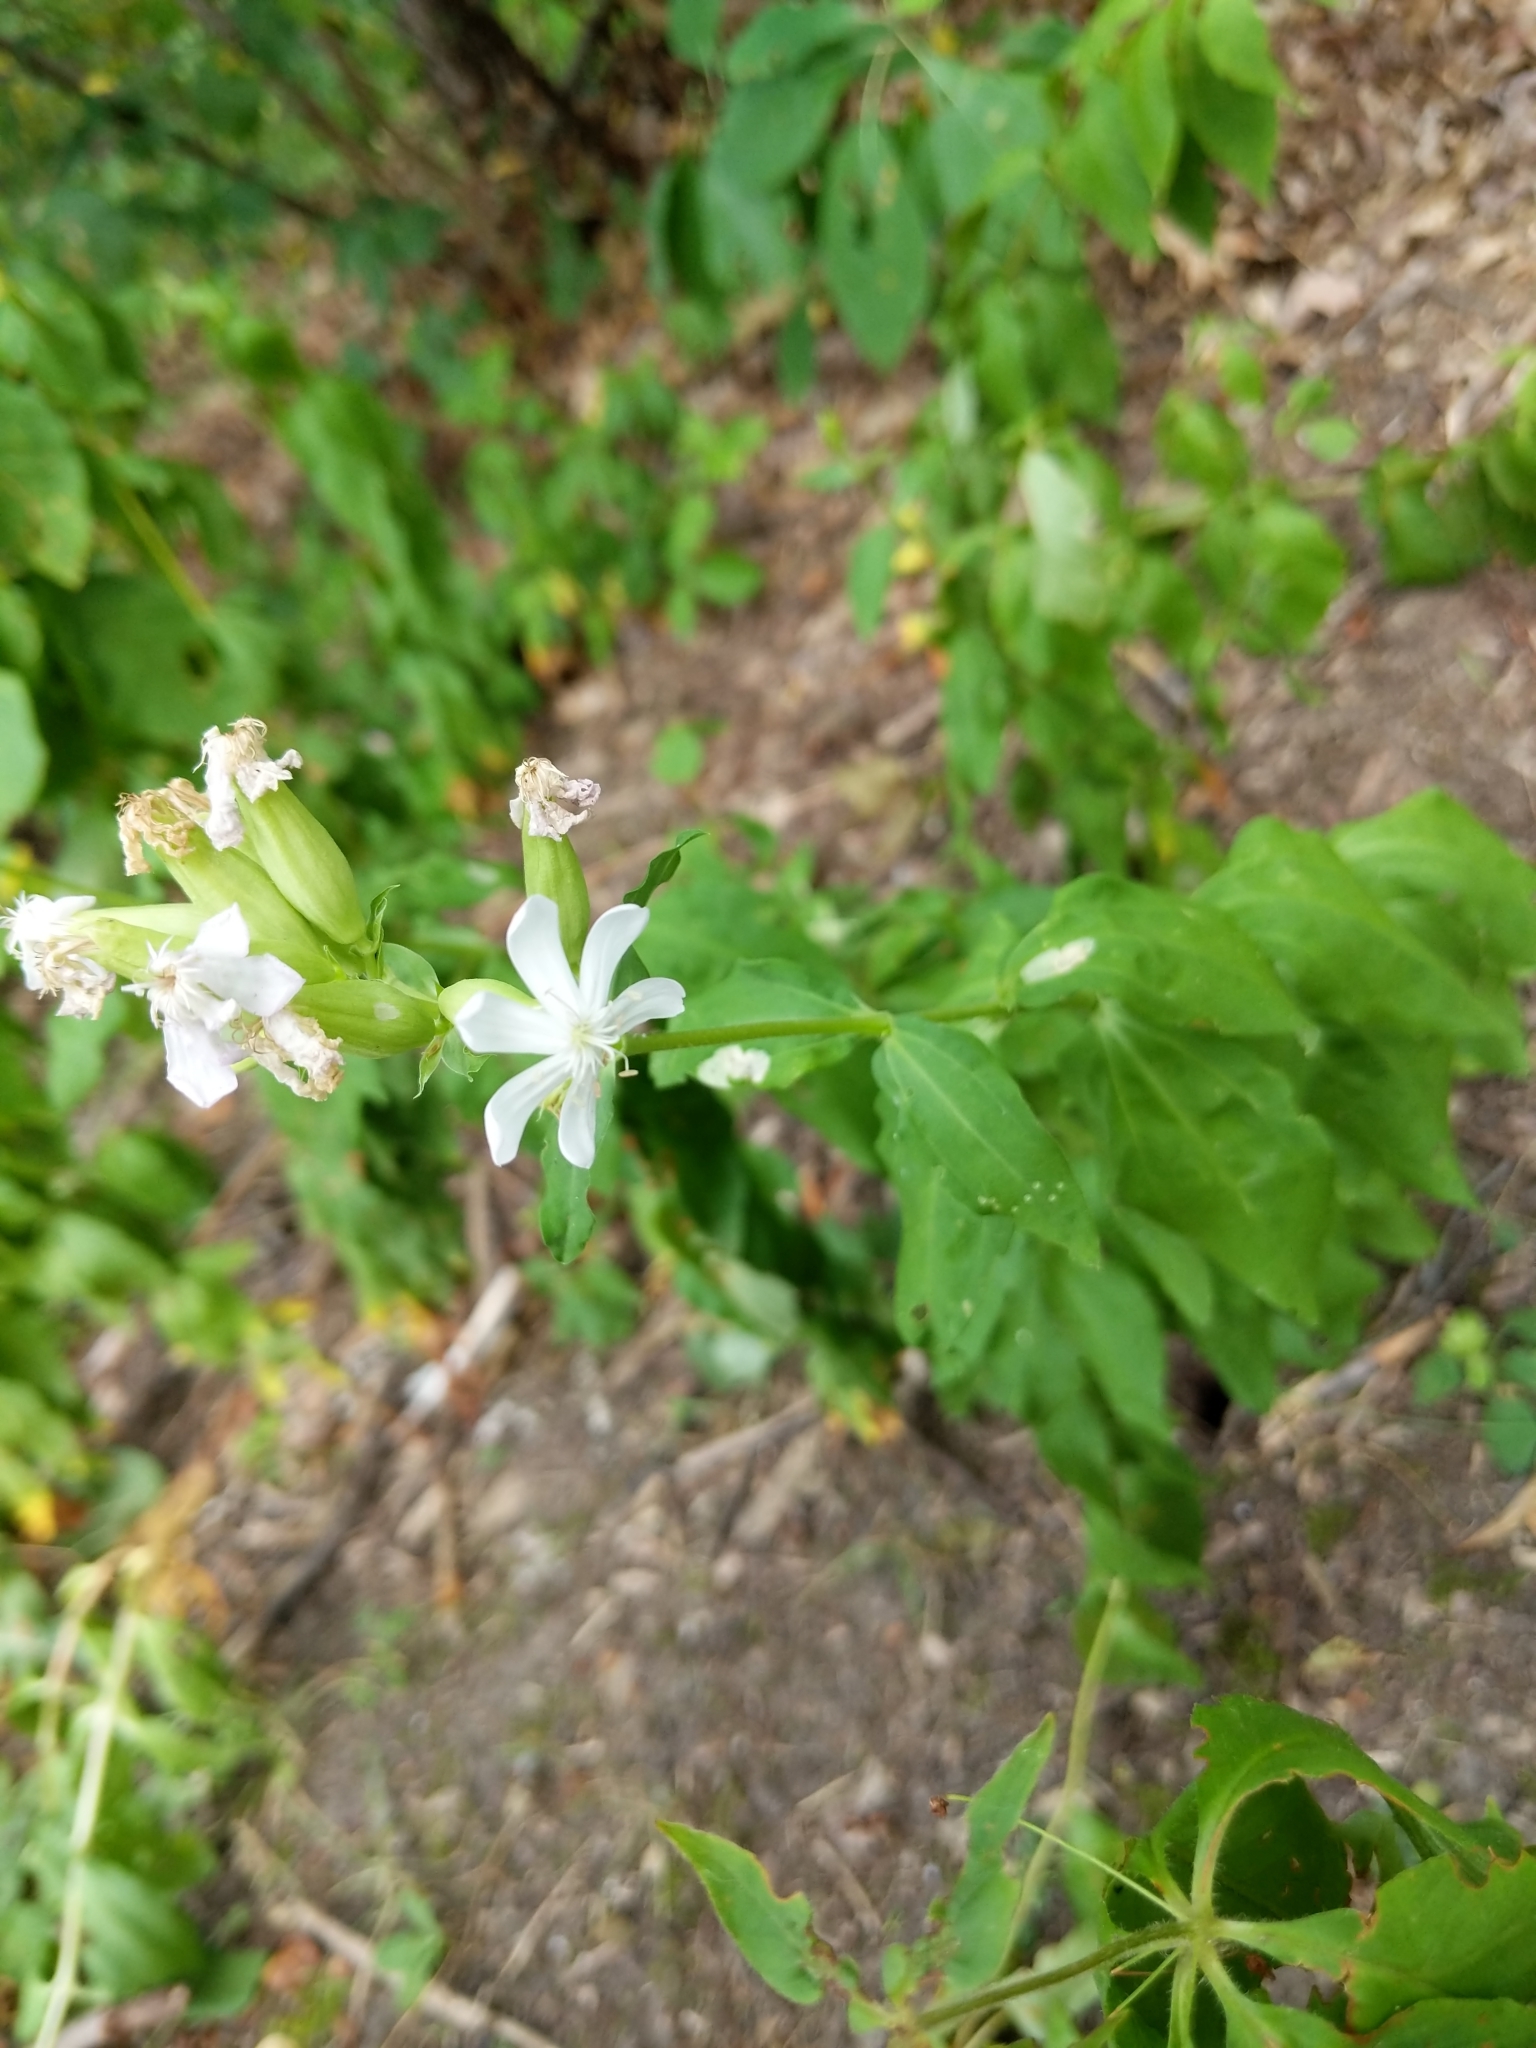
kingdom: Plantae
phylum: Tracheophyta
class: Magnoliopsida
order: Caryophyllales
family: Caryophyllaceae
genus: Saponaria
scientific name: Saponaria officinalis
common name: Soapwort
